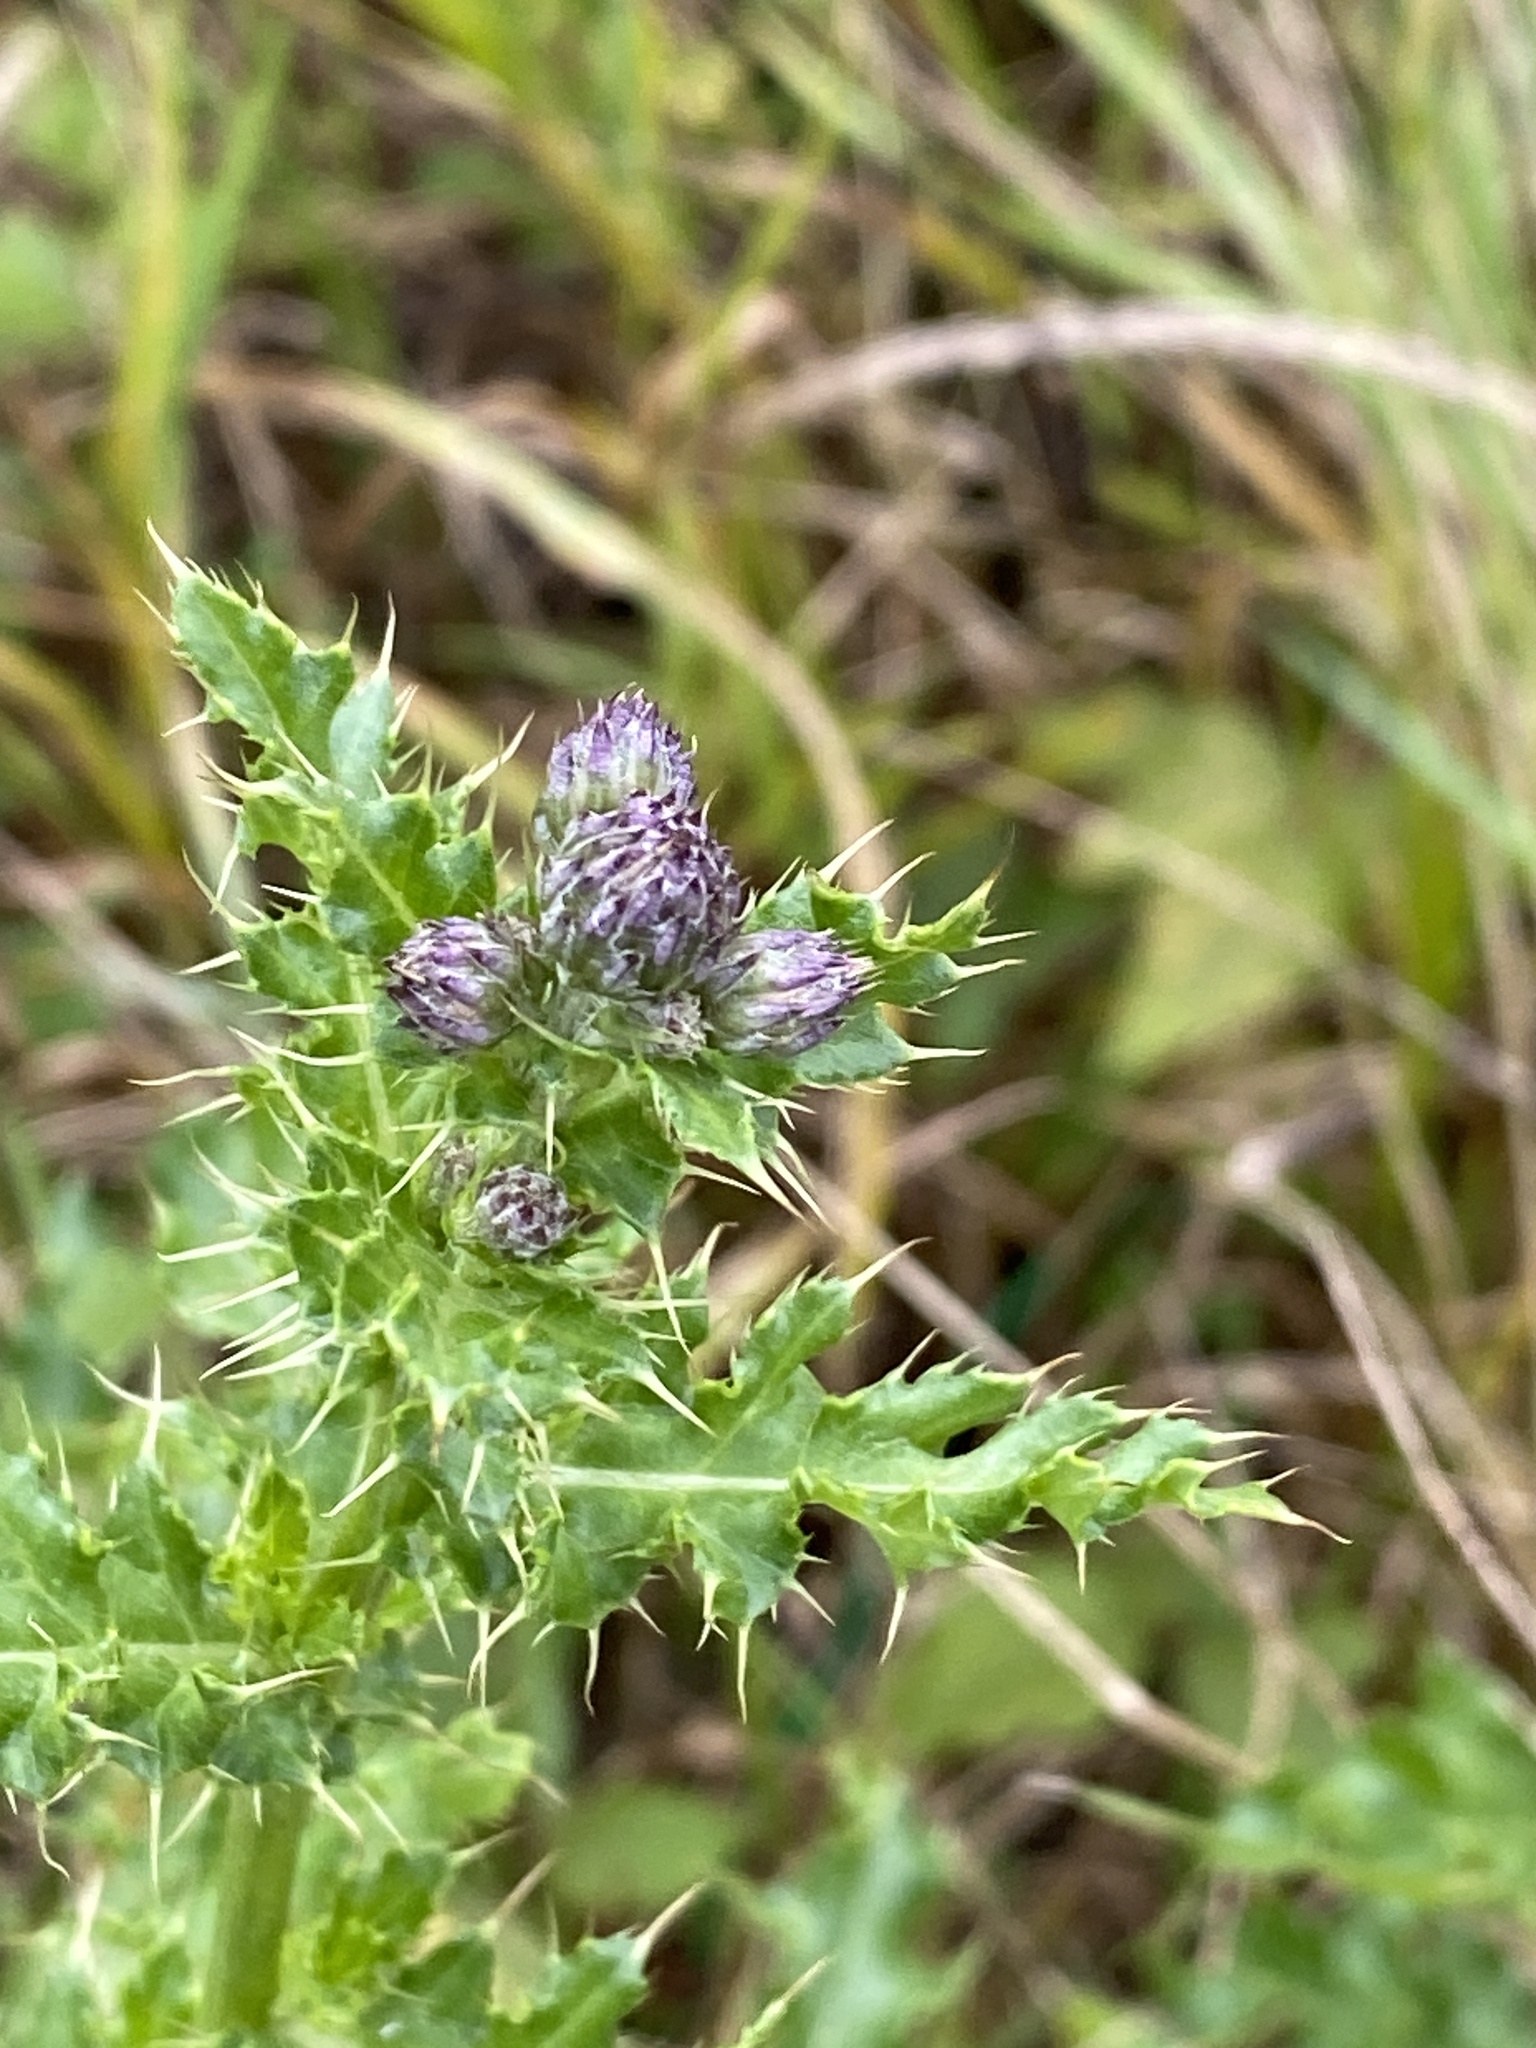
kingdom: Plantae
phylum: Tracheophyta
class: Magnoliopsida
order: Asterales
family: Asteraceae
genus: Cirsium
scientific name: Cirsium arvense
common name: Creeping thistle
